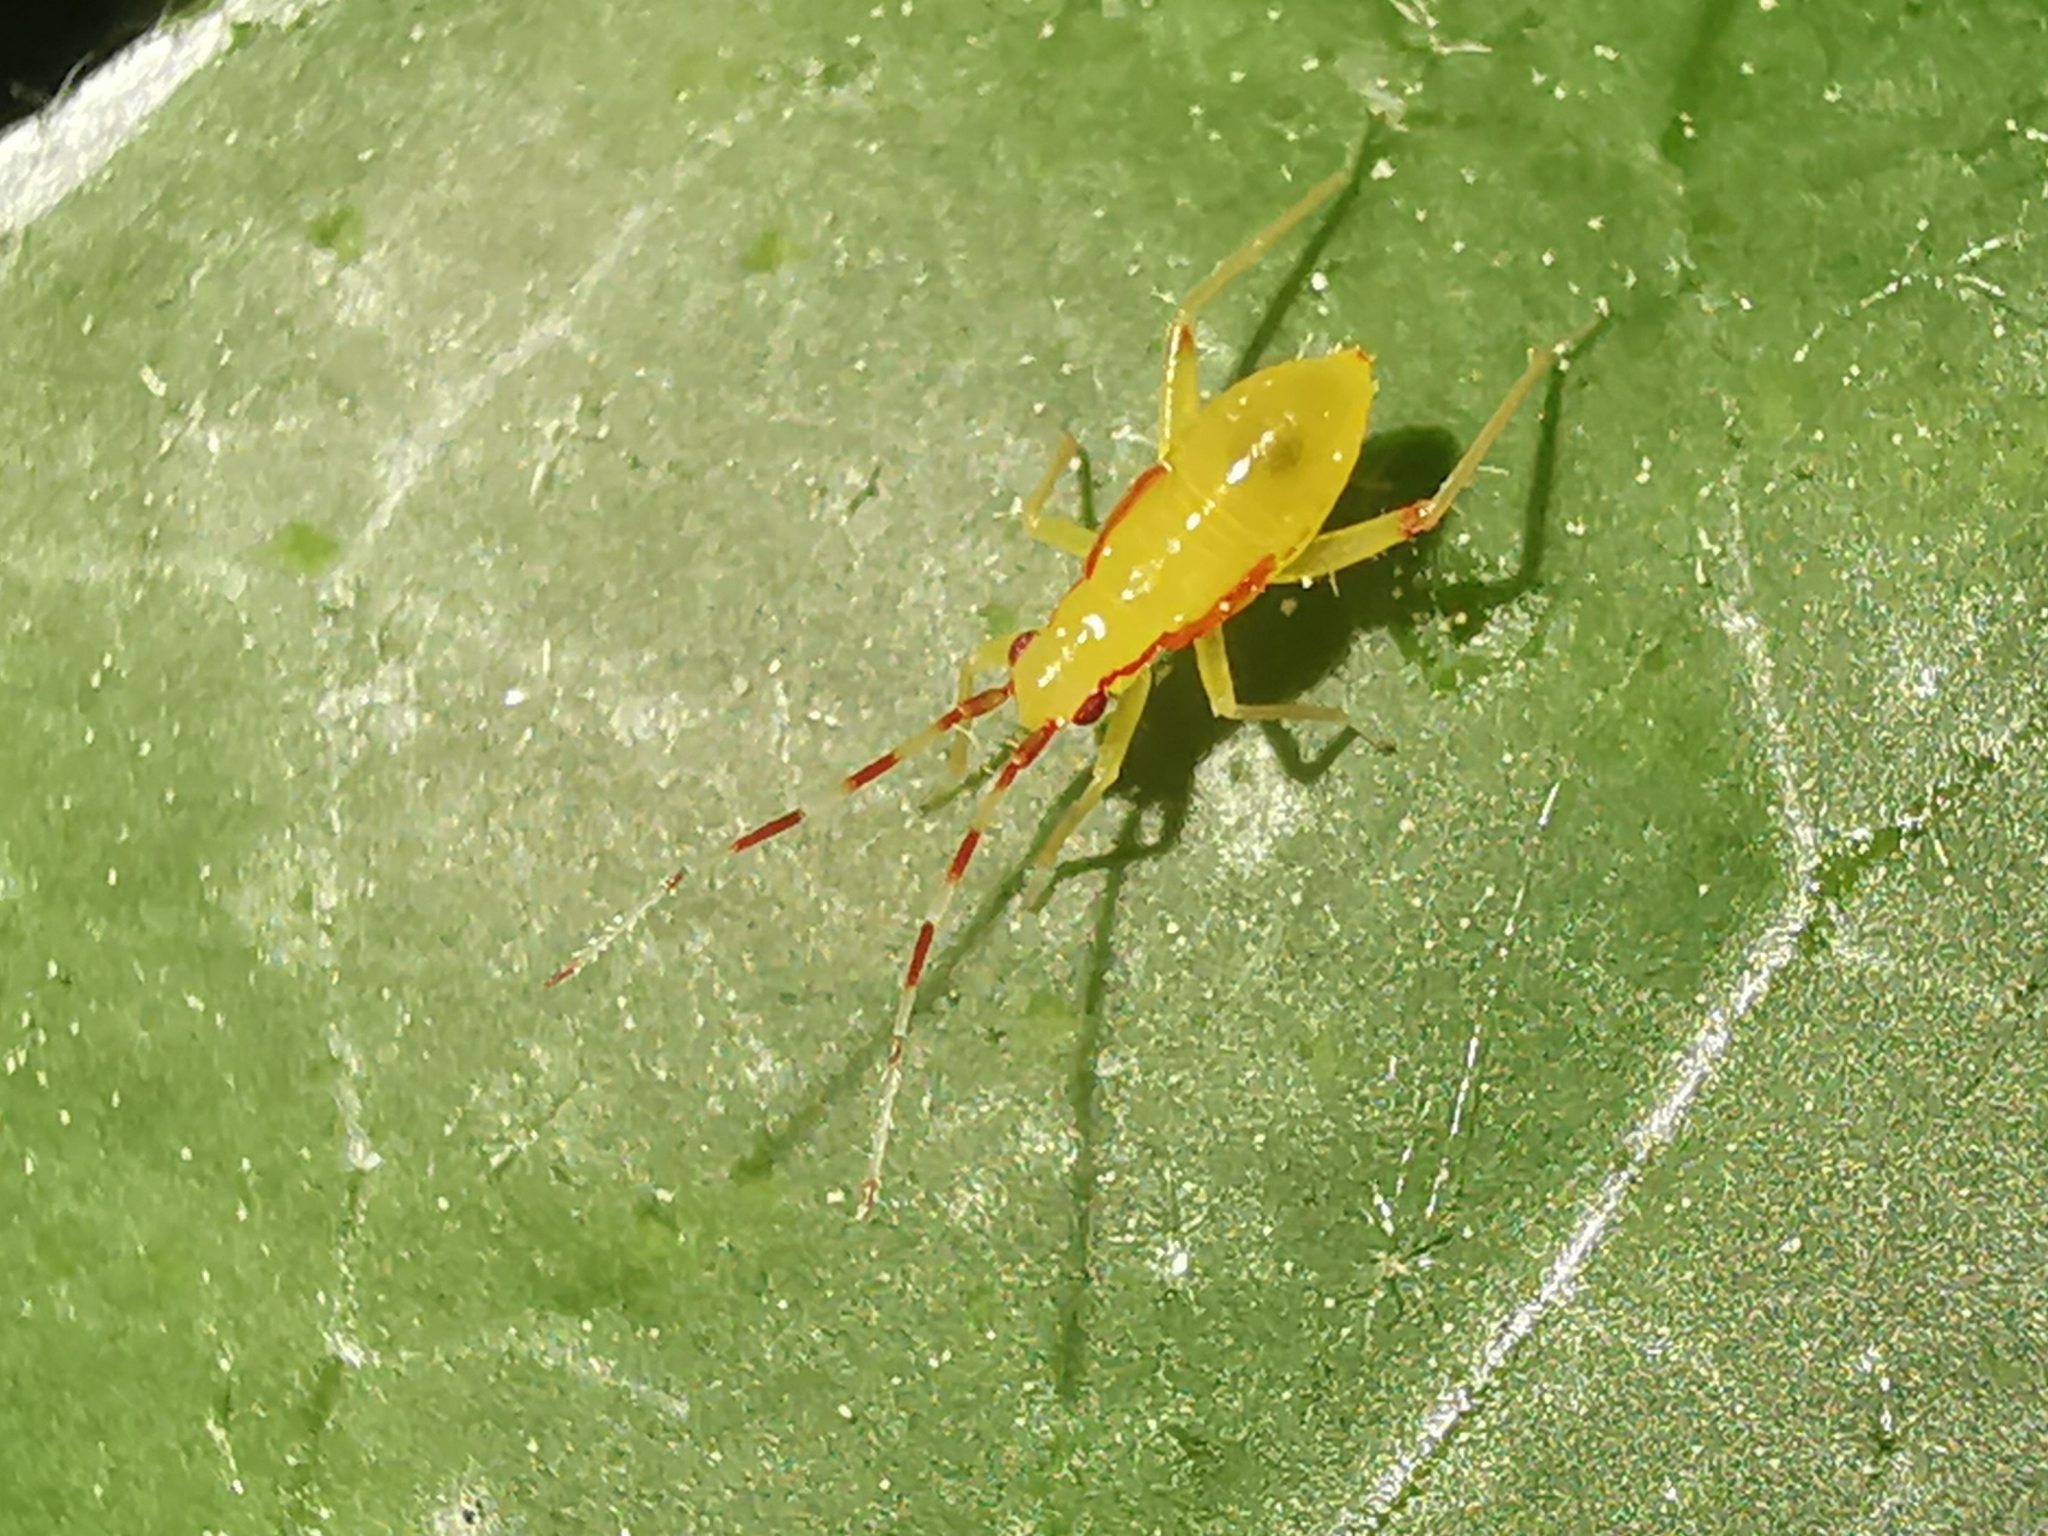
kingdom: Animalia
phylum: Arthropoda
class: Insecta
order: Hemiptera
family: Miridae
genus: Campyloneura
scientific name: Campyloneura virgula
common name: Predatory bug
